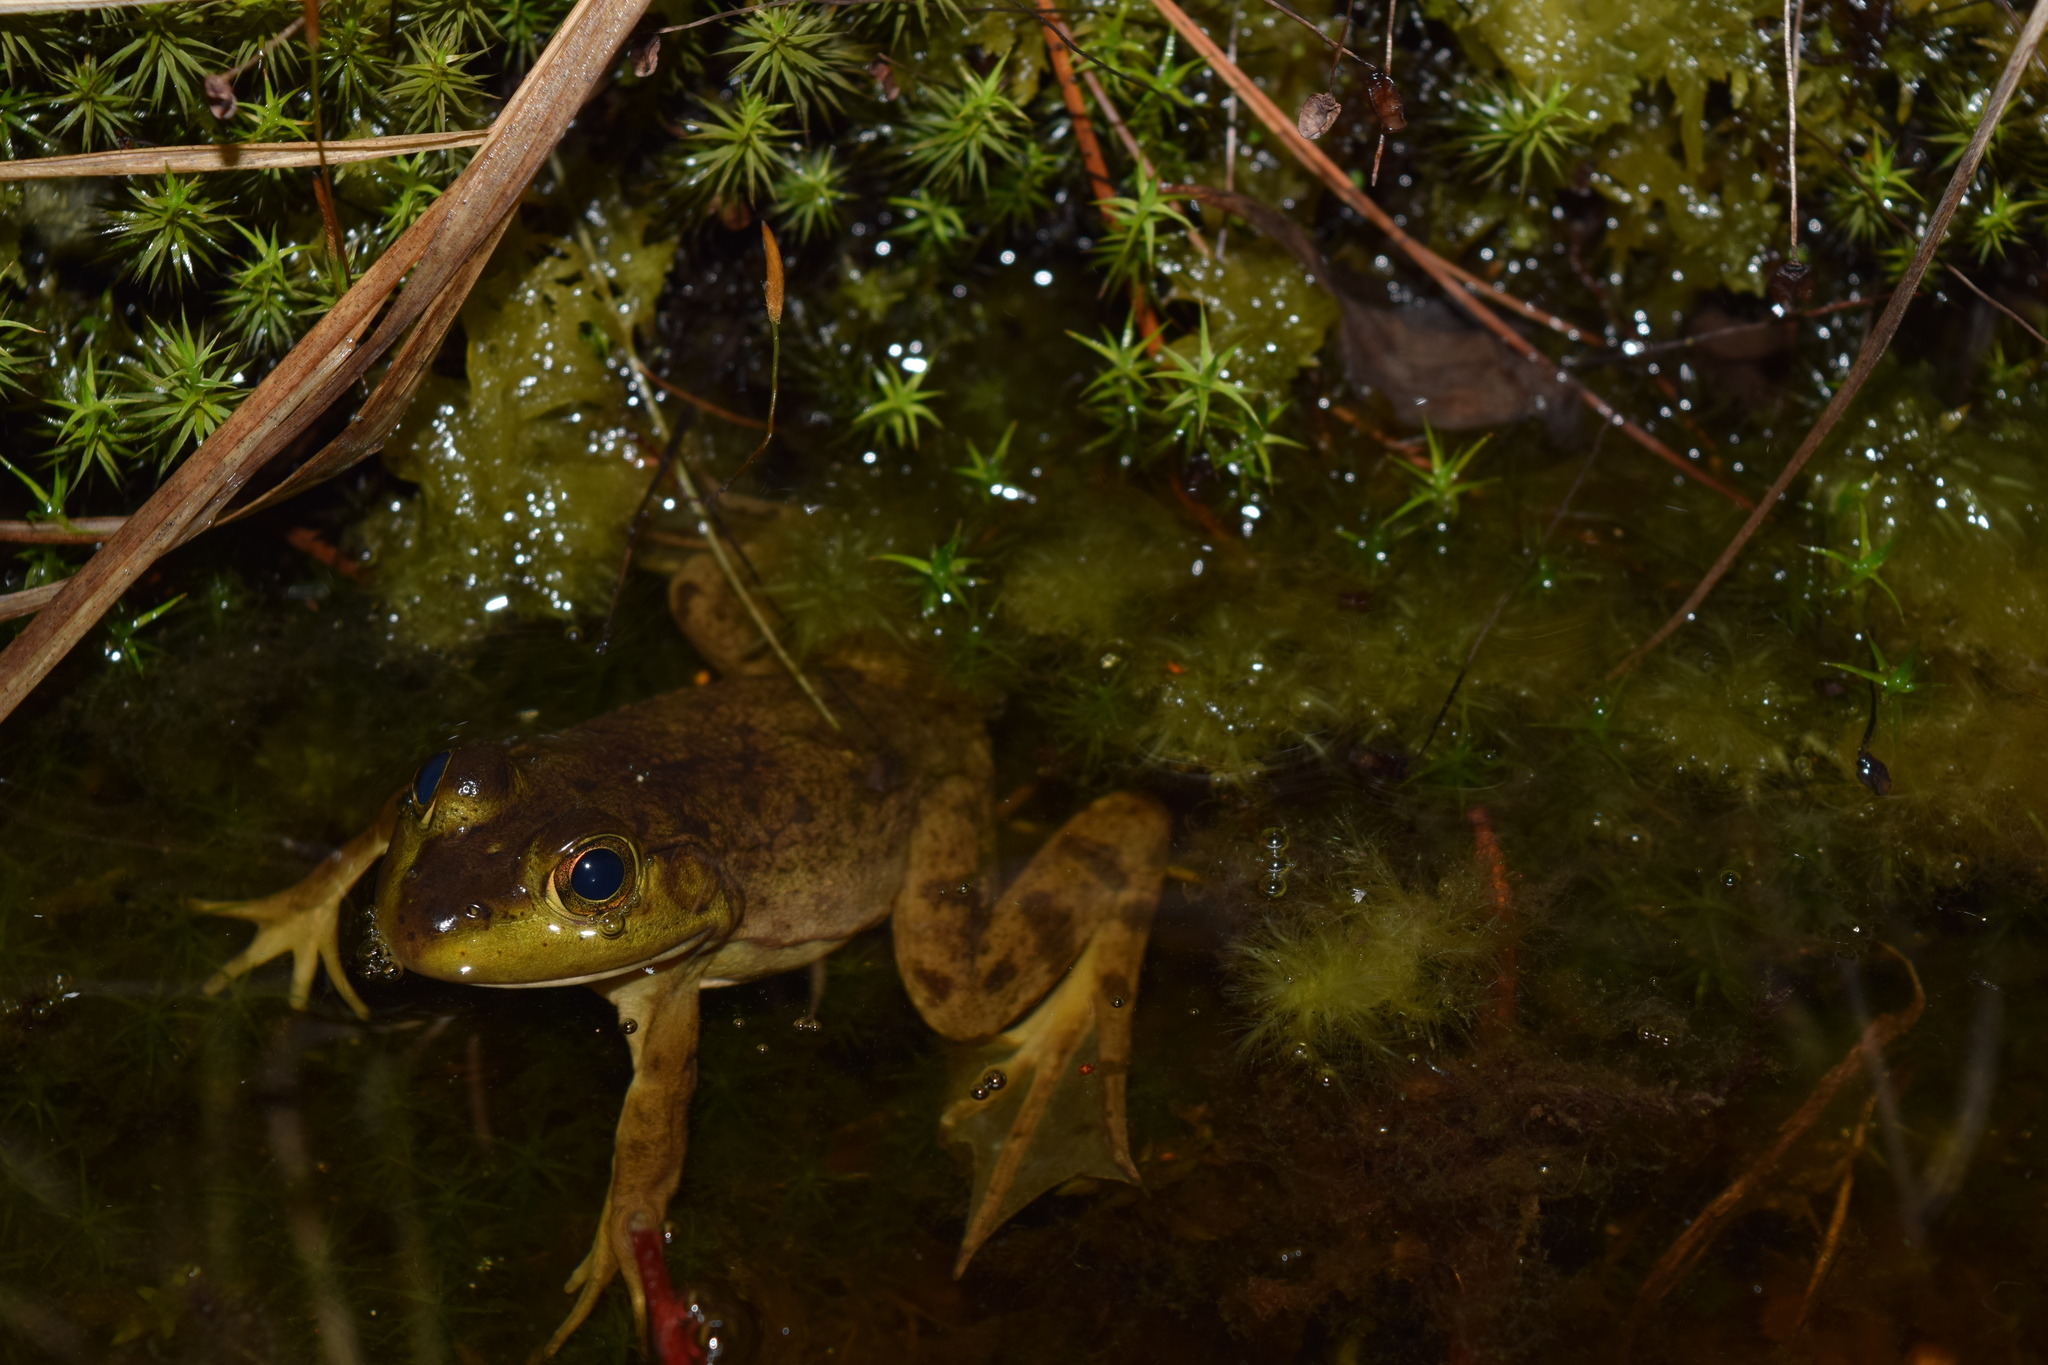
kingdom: Animalia
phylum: Chordata
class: Amphibia
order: Anura
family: Ranidae
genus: Lithobates
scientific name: Lithobates catesbeianus
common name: American bullfrog
